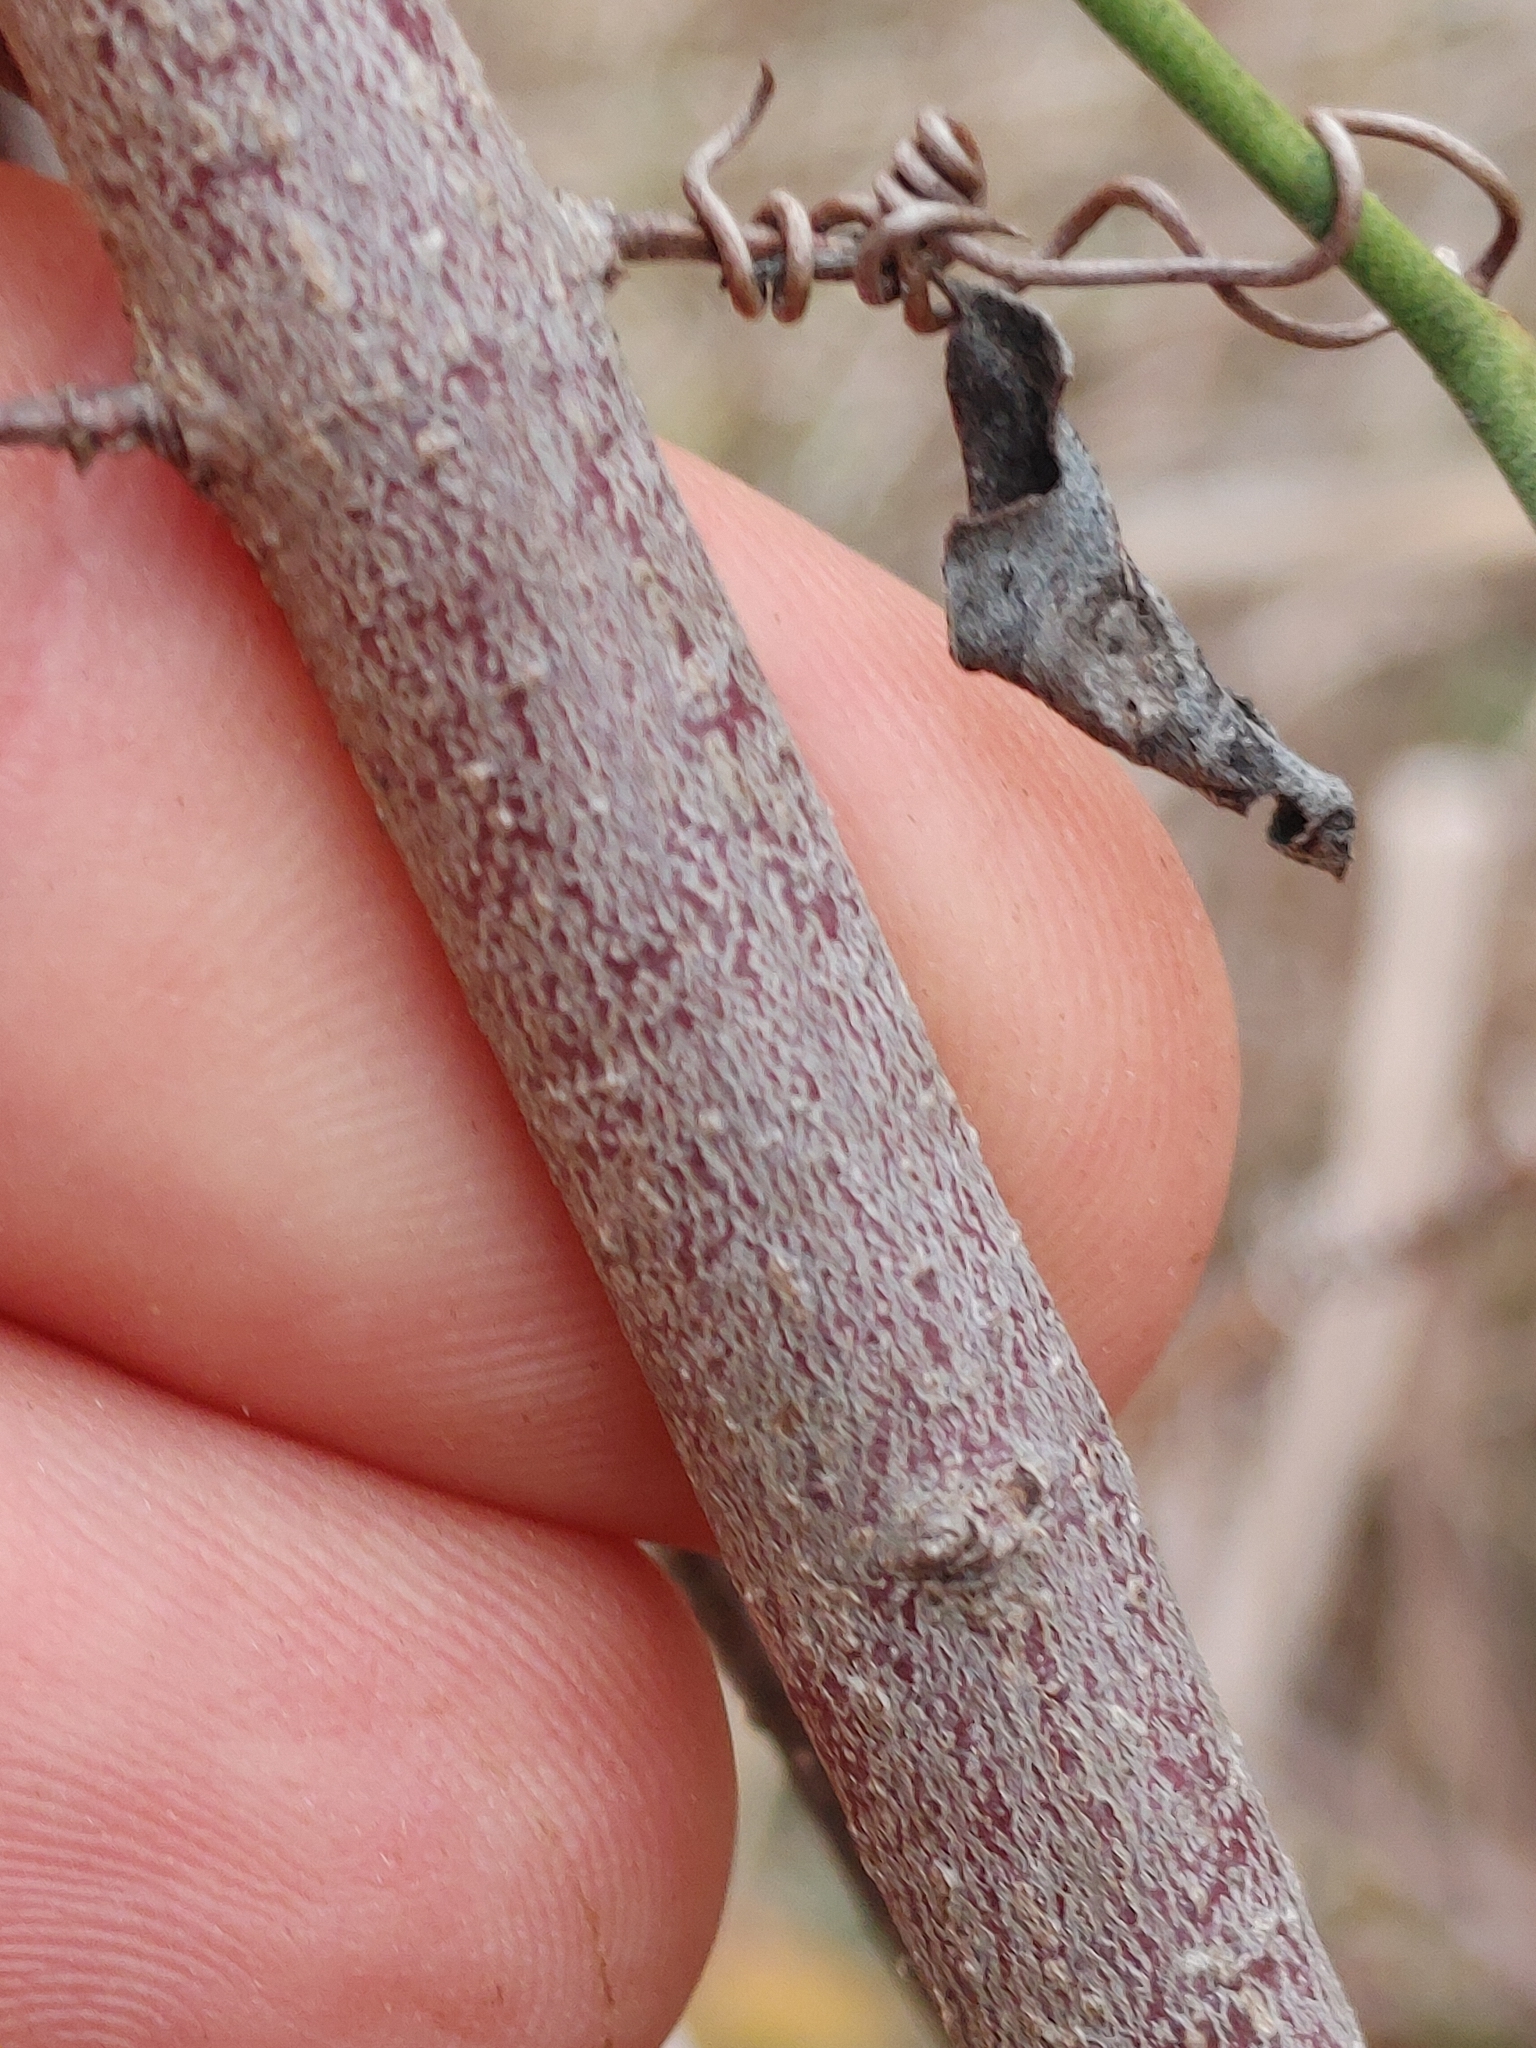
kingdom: Plantae
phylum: Tracheophyta
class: Magnoliopsida
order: Cornales
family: Cornaceae
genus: Cornus
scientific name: Cornus asperifolia
